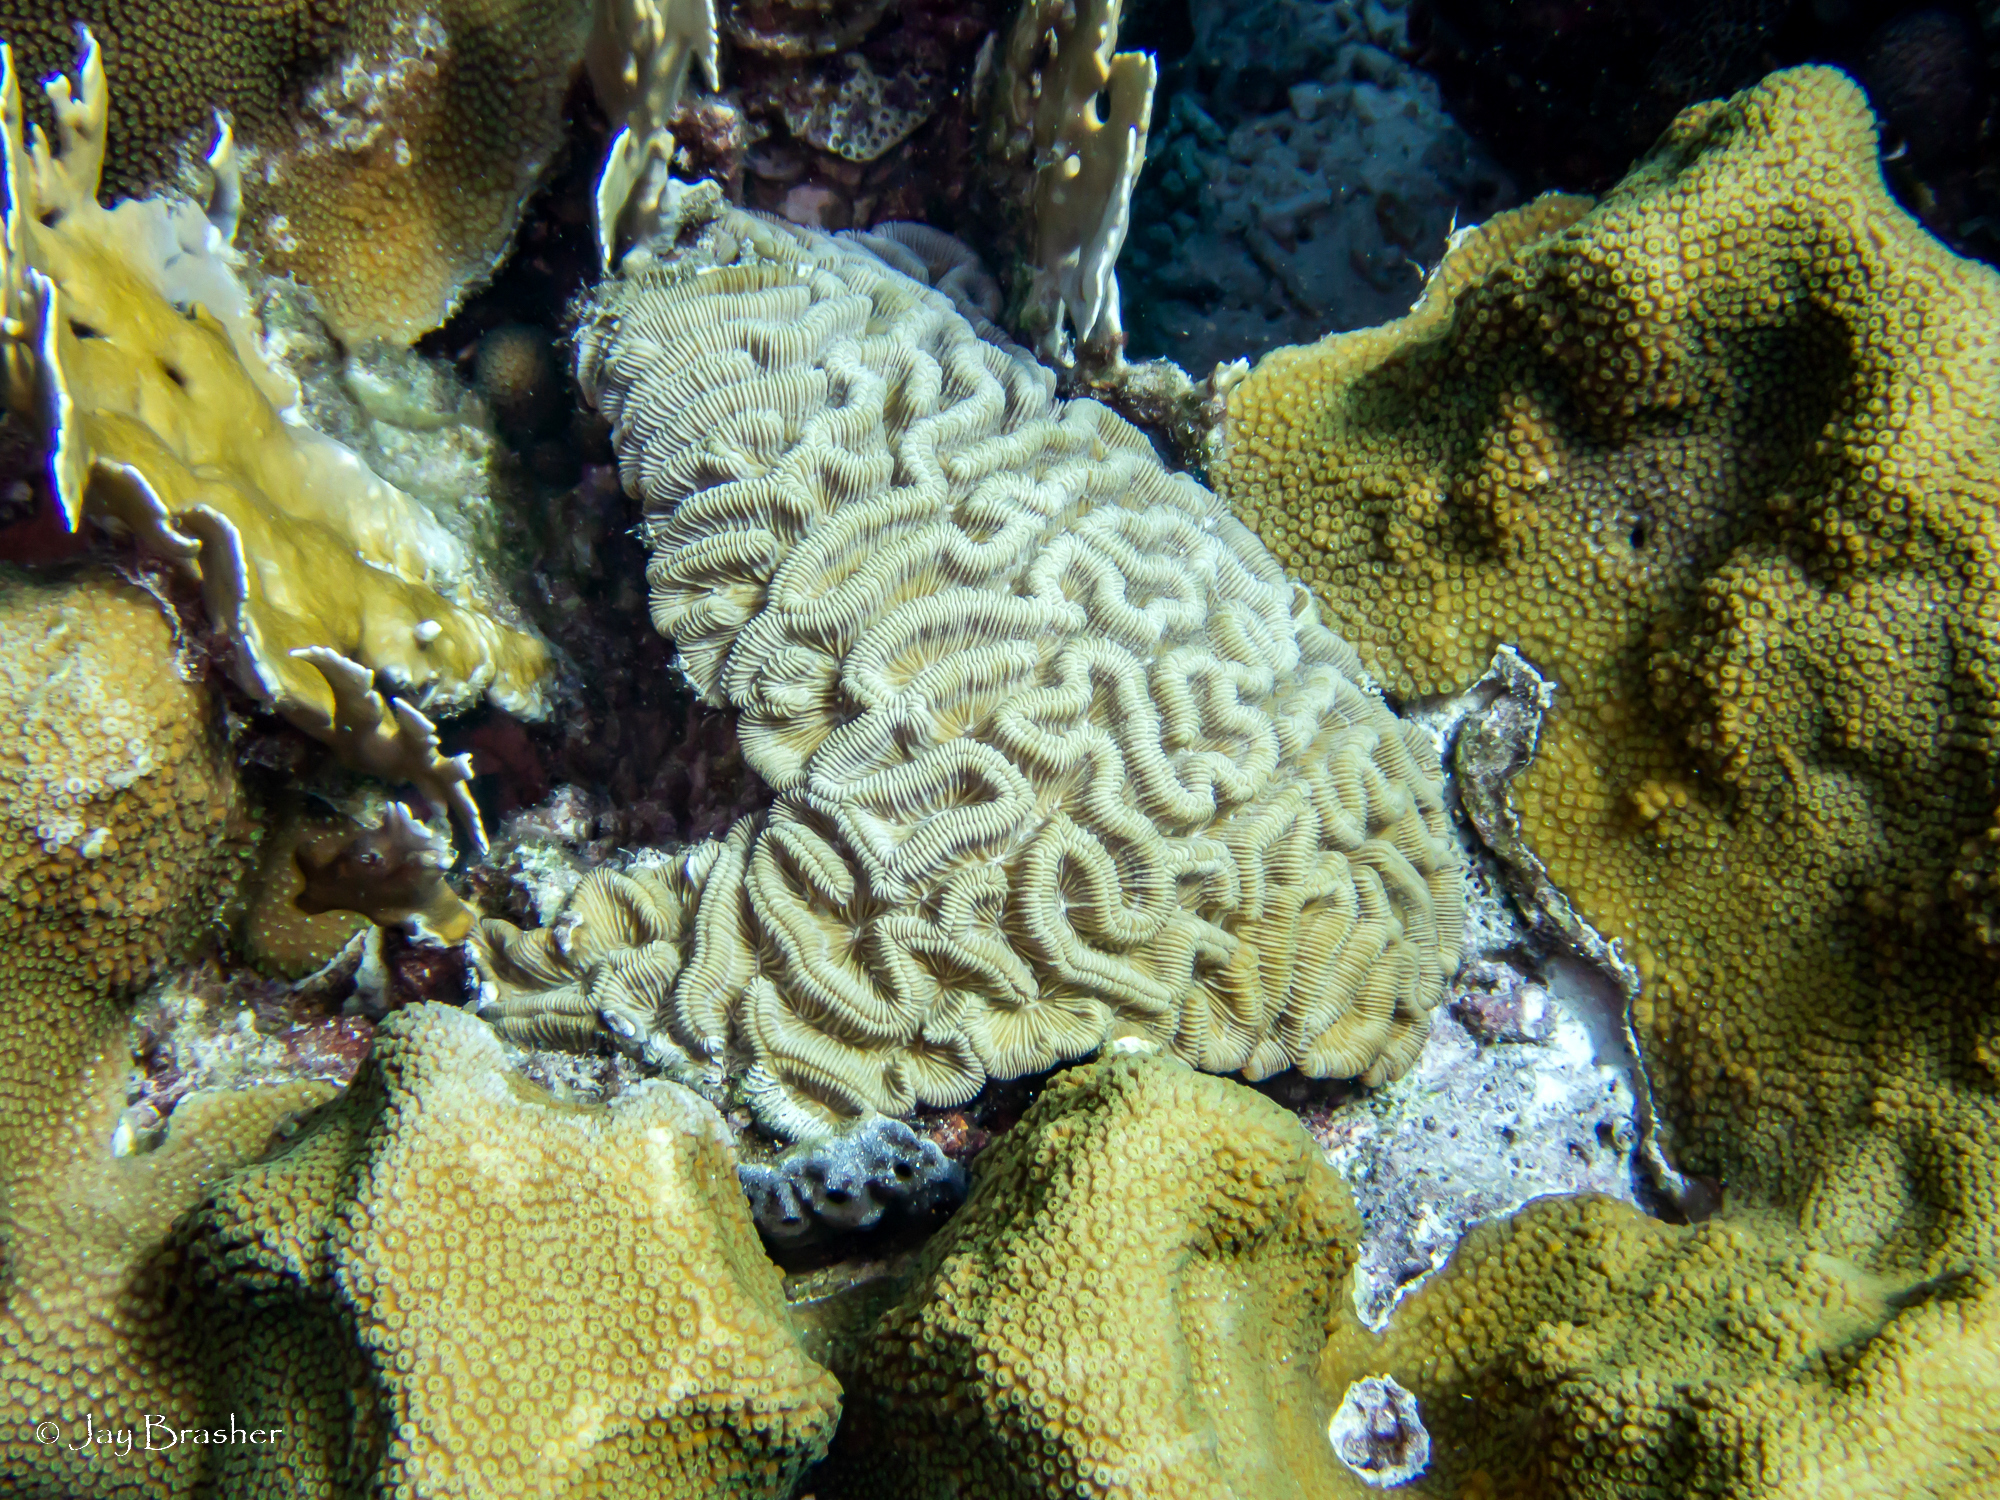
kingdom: Animalia
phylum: Cnidaria
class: Hydrozoa
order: Anthoathecata
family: Milleporidae
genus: Millepora
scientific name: Millepora complanata
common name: Bladed fire coral
